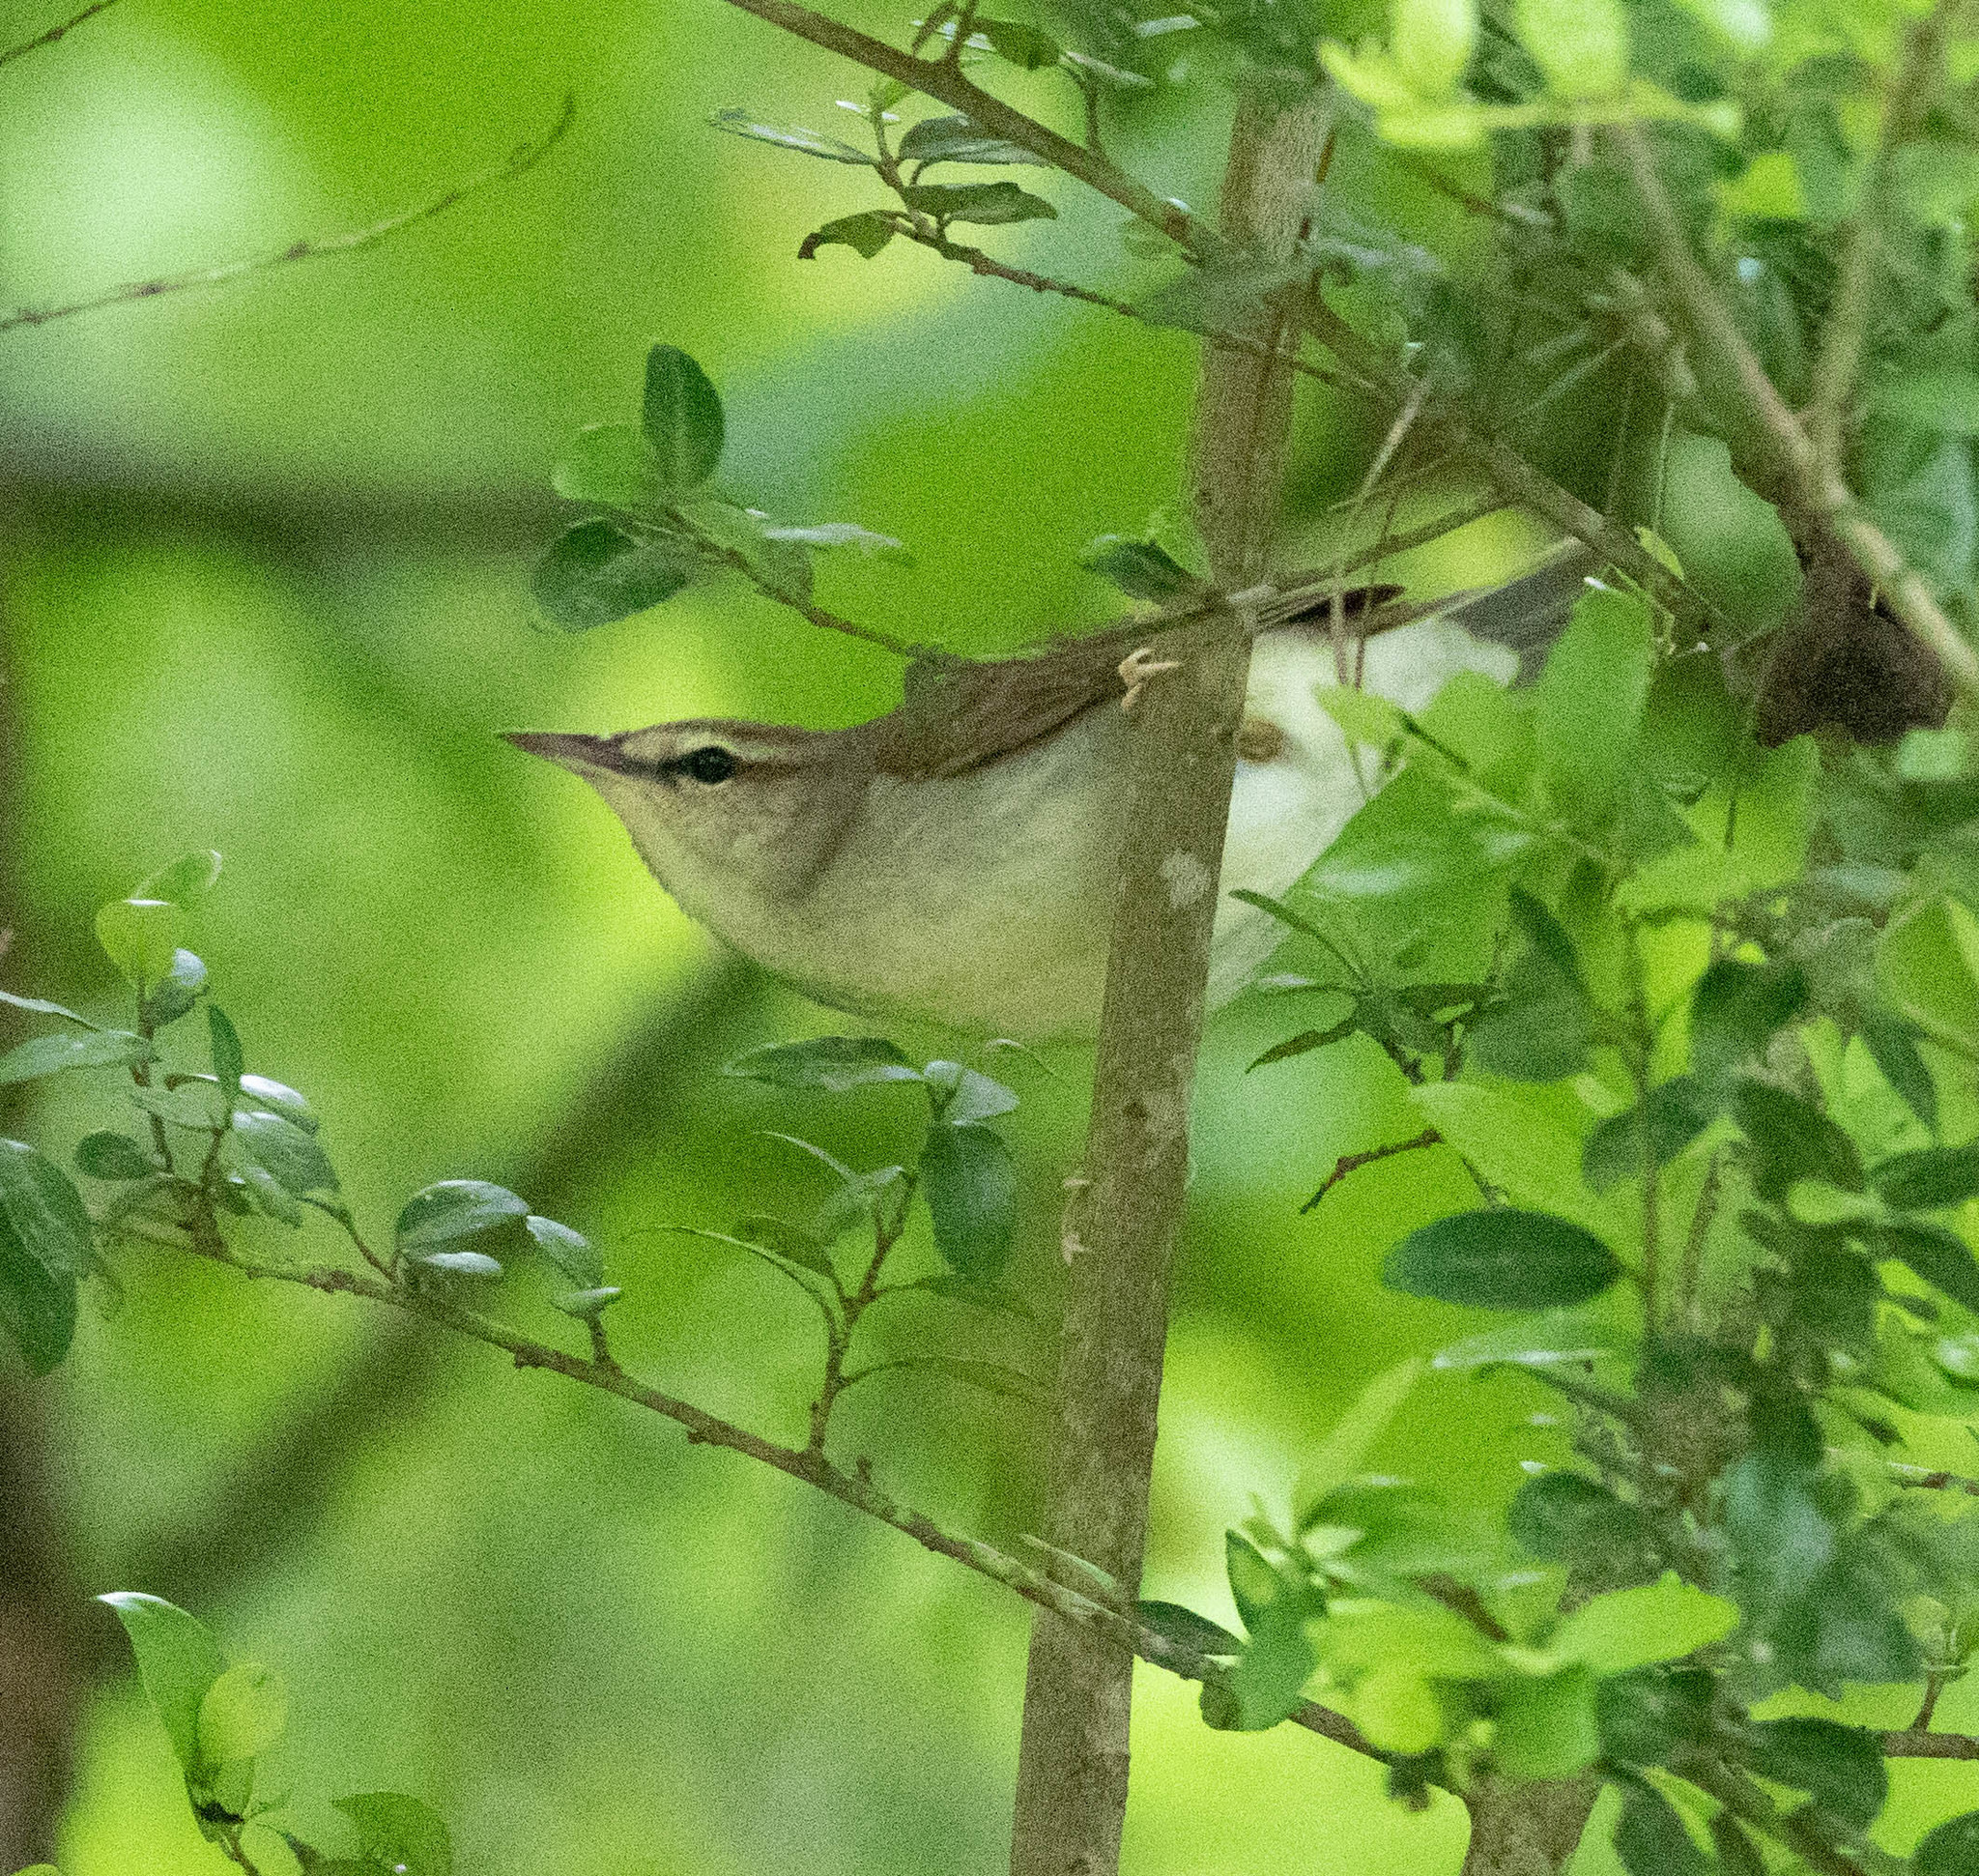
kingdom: Animalia
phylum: Chordata
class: Aves
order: Passeriformes
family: Parulidae
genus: Limnothlypis
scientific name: Limnothlypis swainsonii
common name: Swainson's warbler
